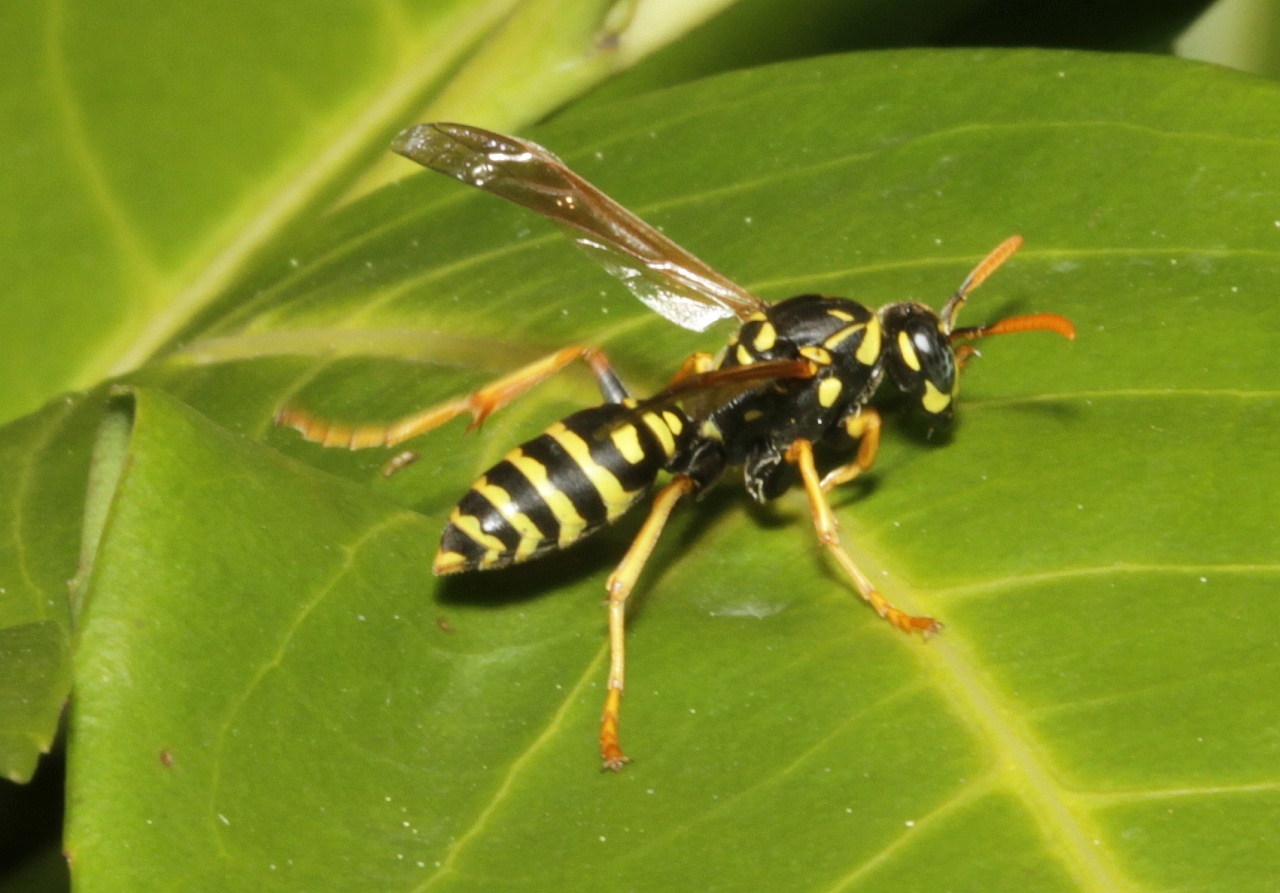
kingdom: Animalia
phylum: Arthropoda
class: Insecta
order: Hymenoptera
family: Eumenidae
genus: Polistes
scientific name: Polistes dominula
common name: Paper wasp
